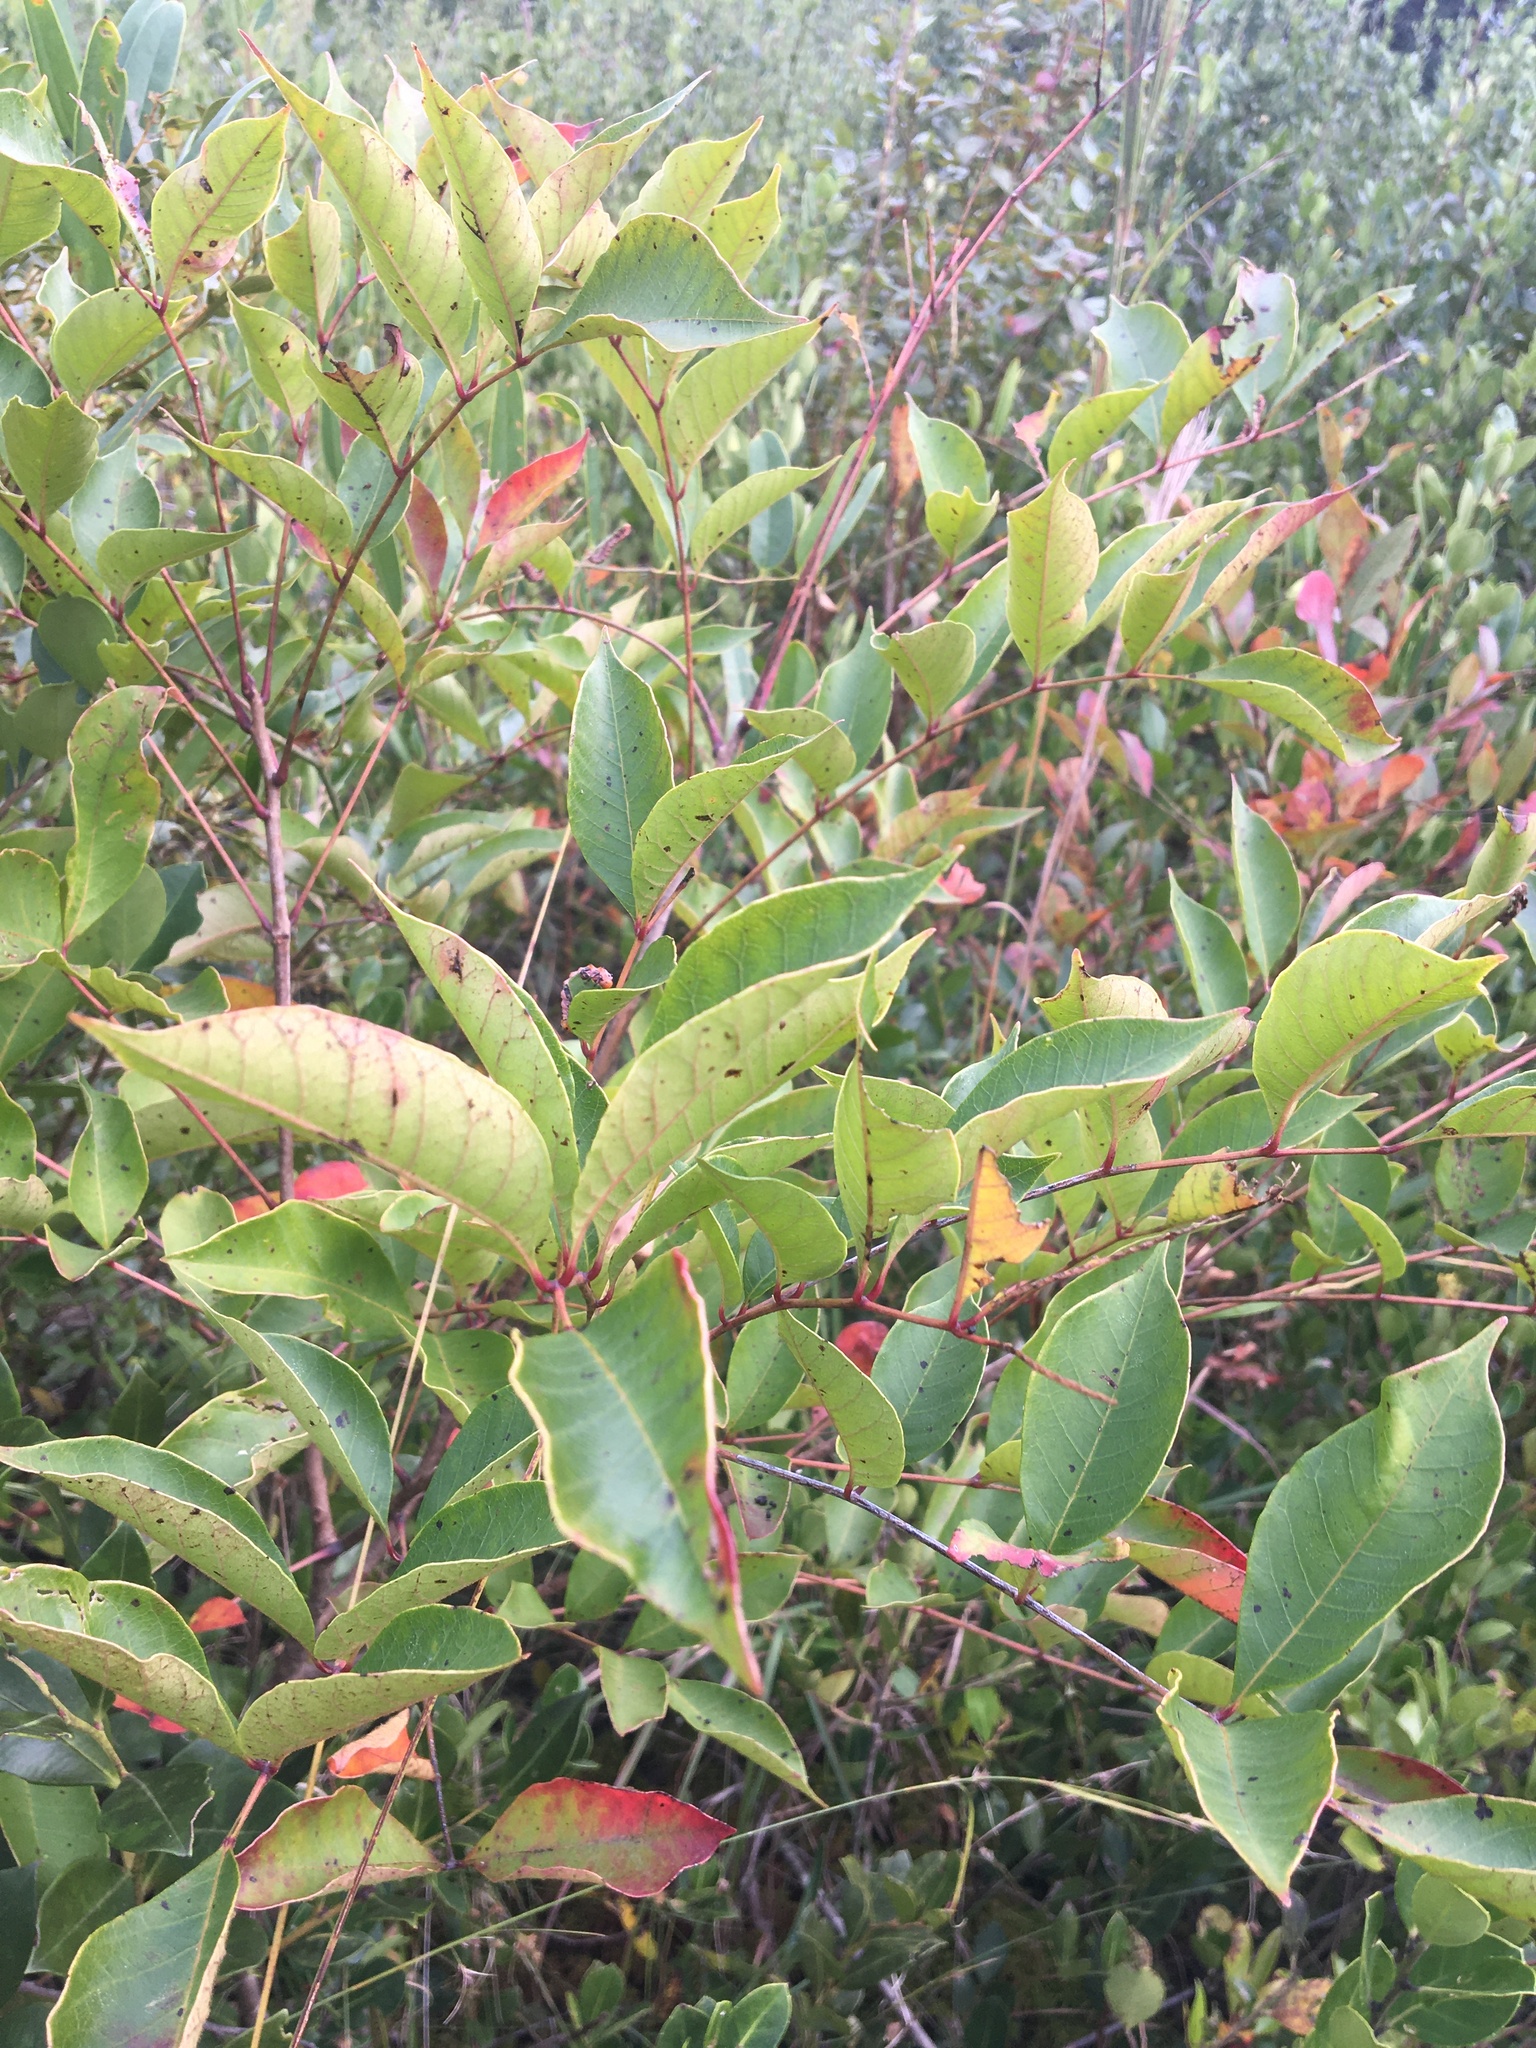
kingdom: Plantae
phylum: Tracheophyta
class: Magnoliopsida
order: Sapindales
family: Anacardiaceae
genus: Toxicodendron
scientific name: Toxicodendron vernix
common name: Poison sumac
